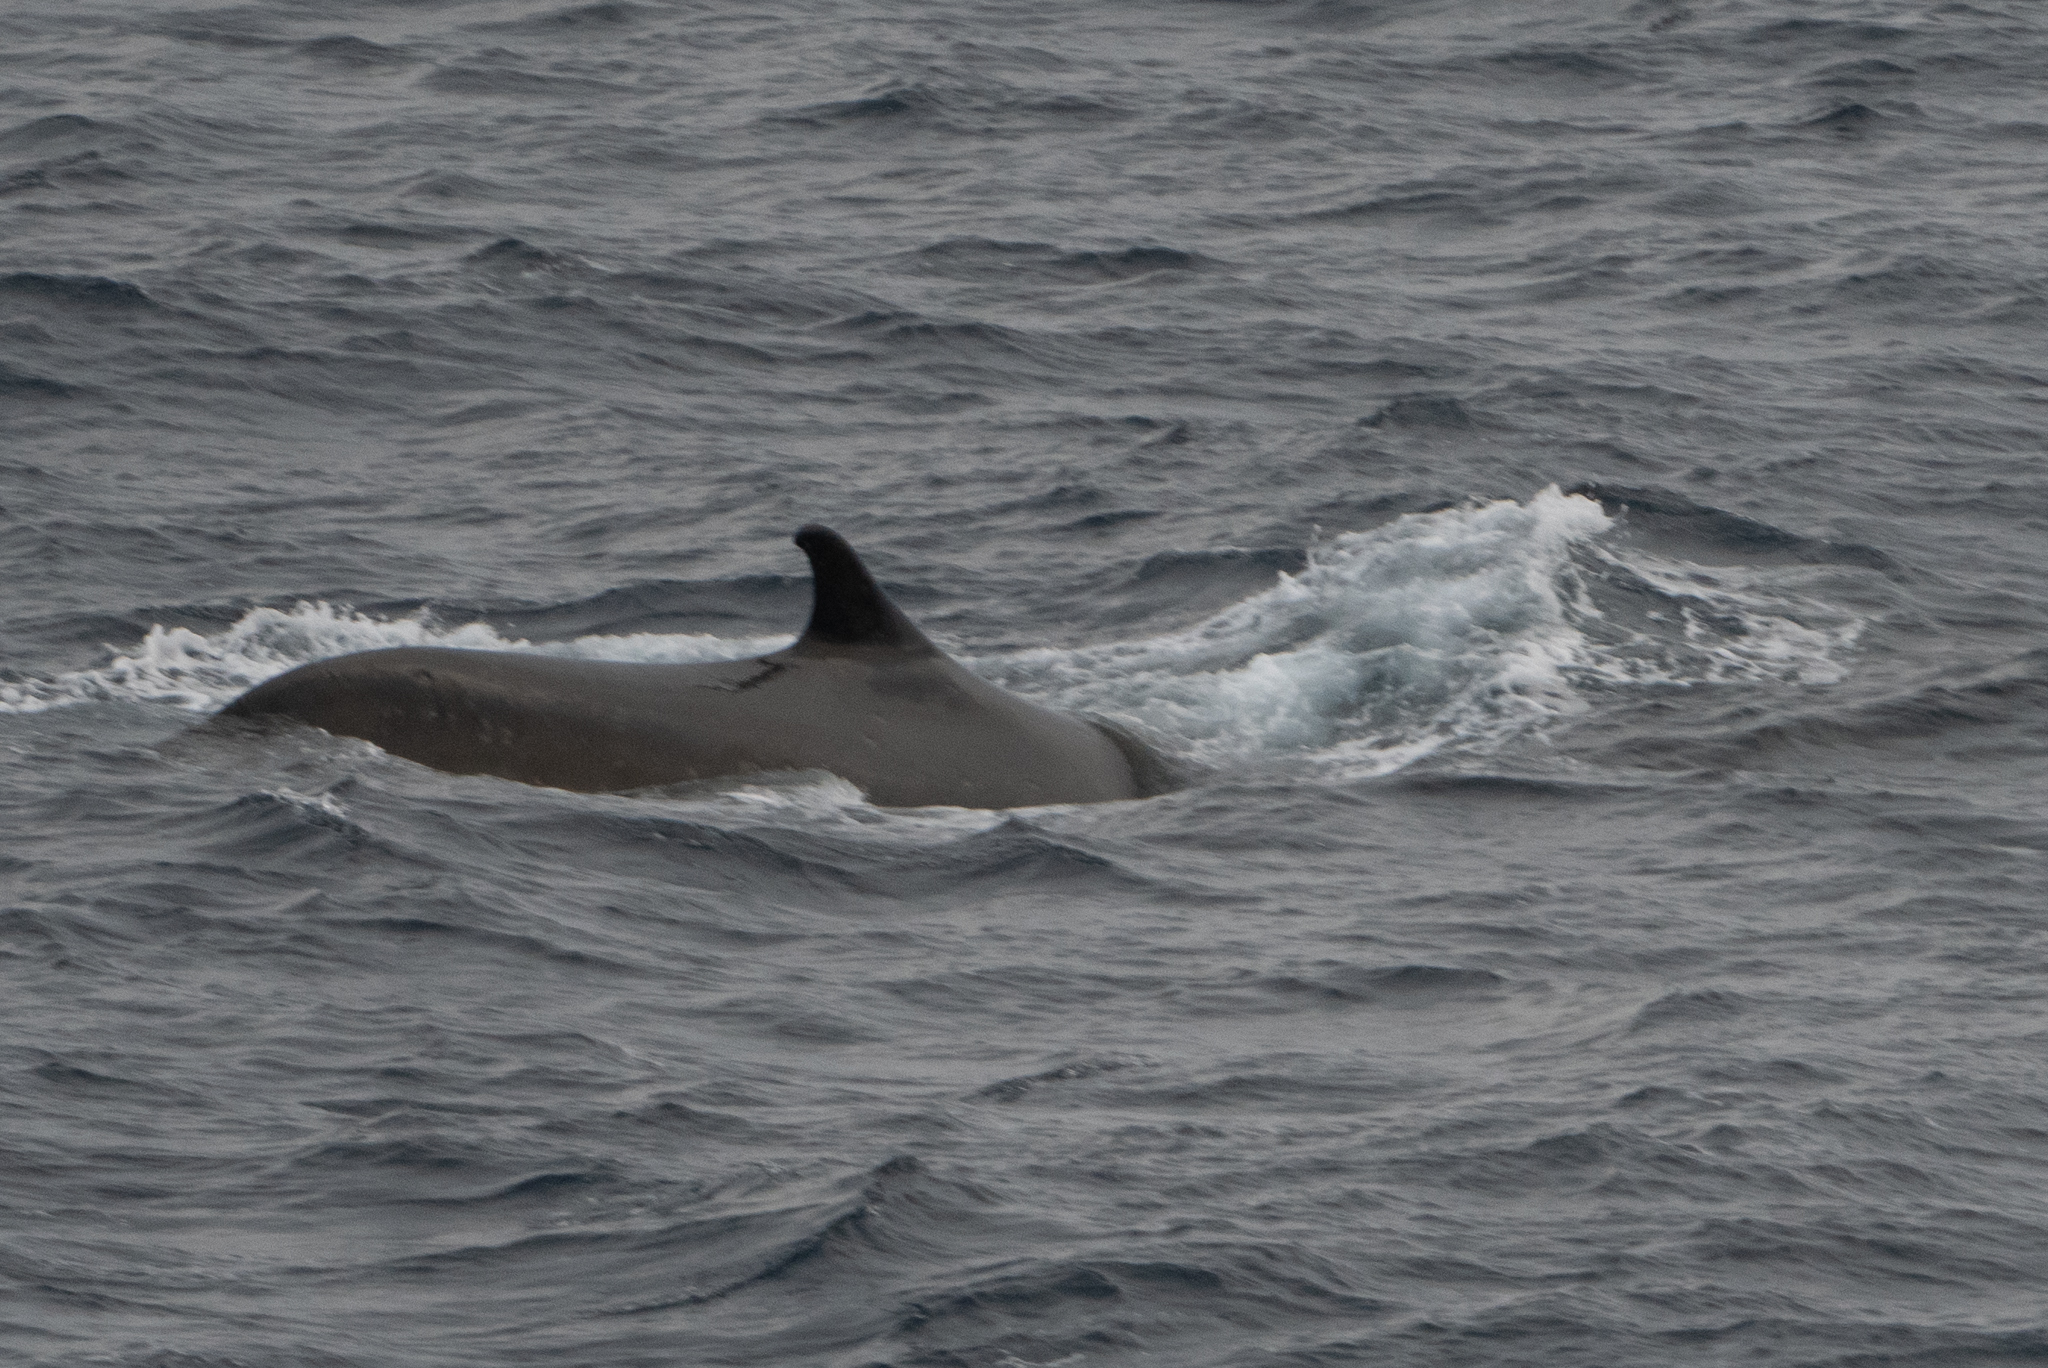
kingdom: Animalia
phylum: Chordata
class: Mammalia
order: Cetacea
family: Balaenopteridae
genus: Balaenoptera
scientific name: Balaenoptera physalus
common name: Fin whale
